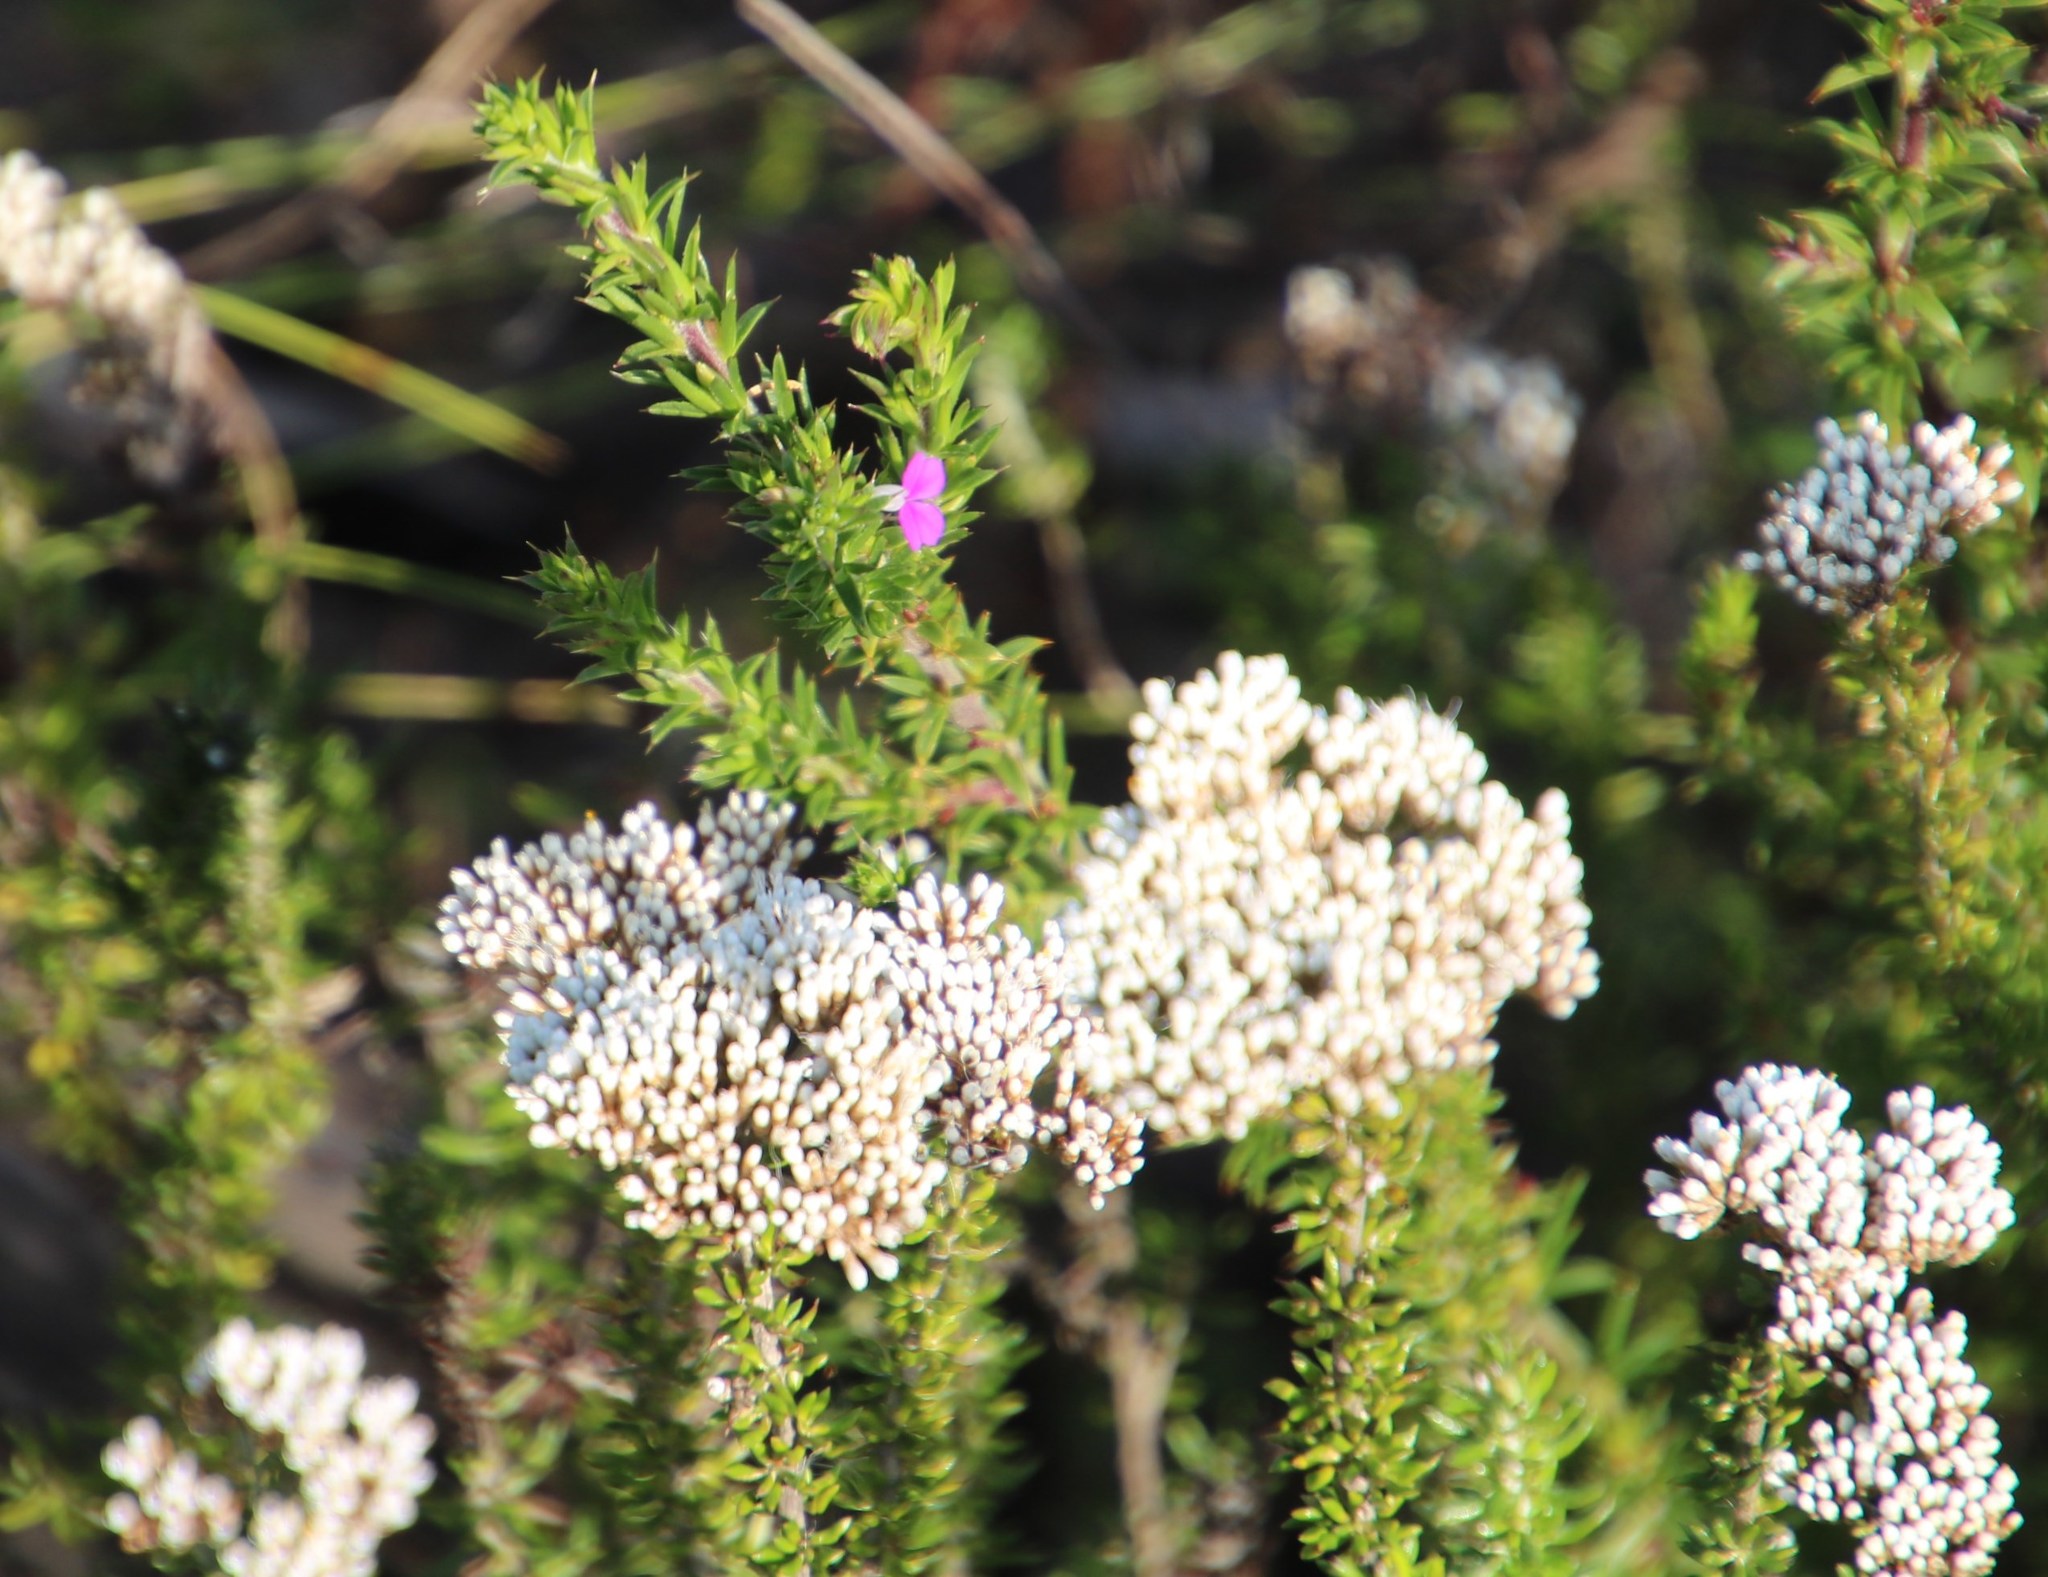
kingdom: Plantae
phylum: Tracheophyta
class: Magnoliopsida
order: Asterales
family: Asteraceae
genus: Metalasia
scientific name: Metalasia densa
